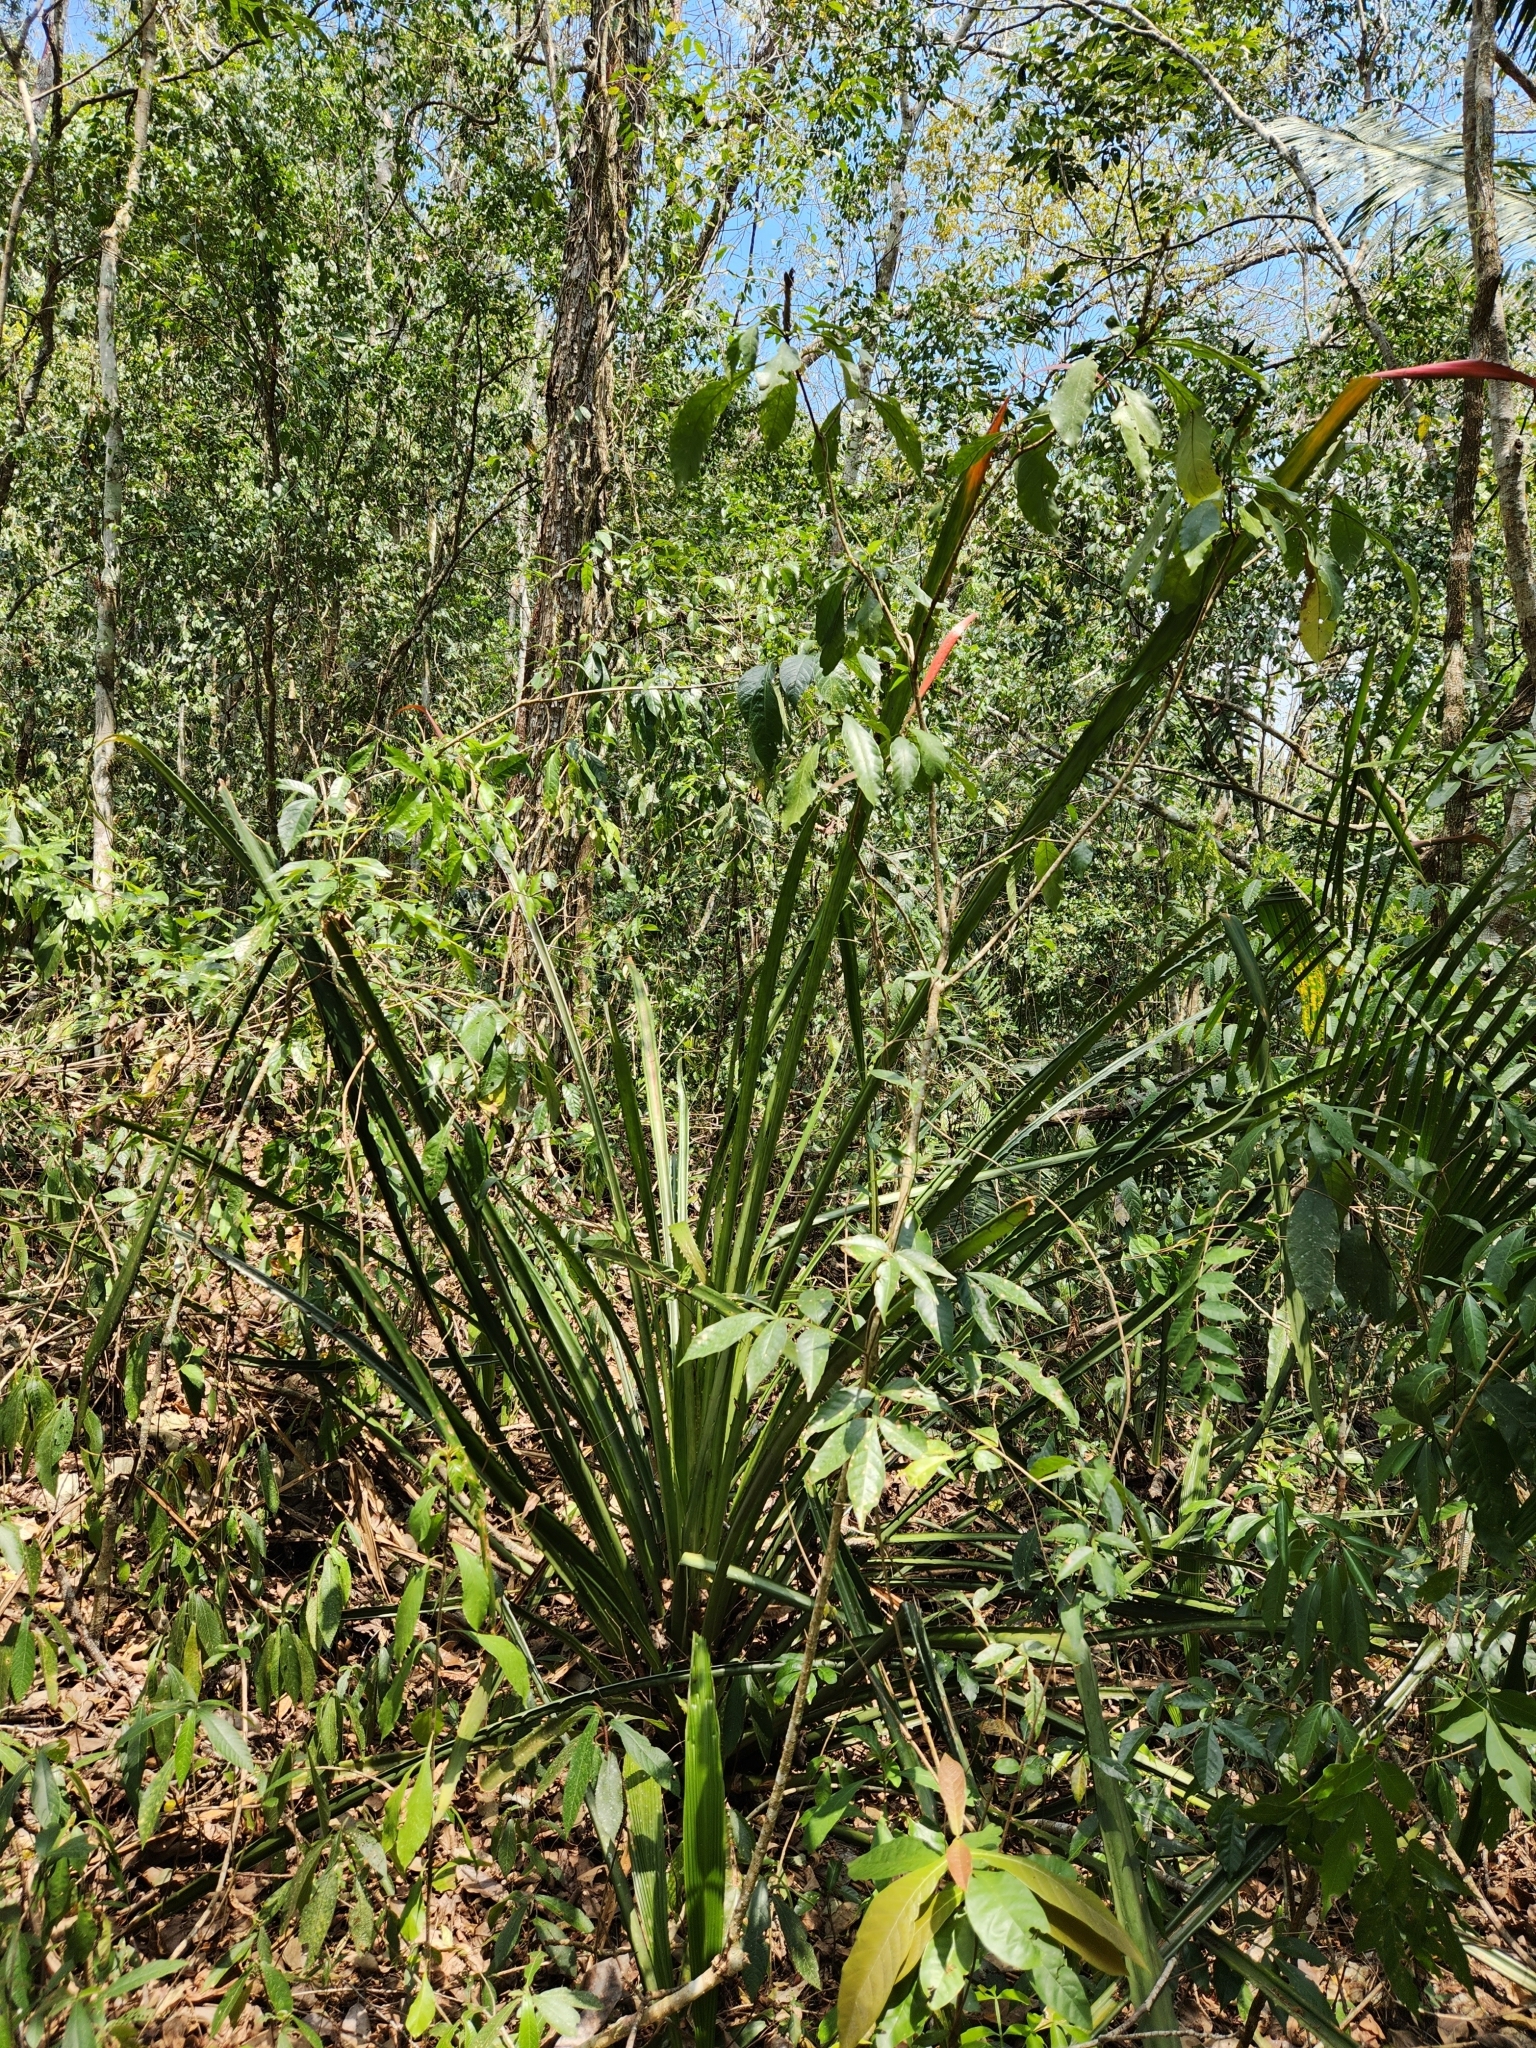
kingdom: Plantae
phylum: Tracheophyta
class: Liliopsida
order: Poales
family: Bromeliaceae
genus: Bromelia
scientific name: Bromelia pinguin
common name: Pinguin
